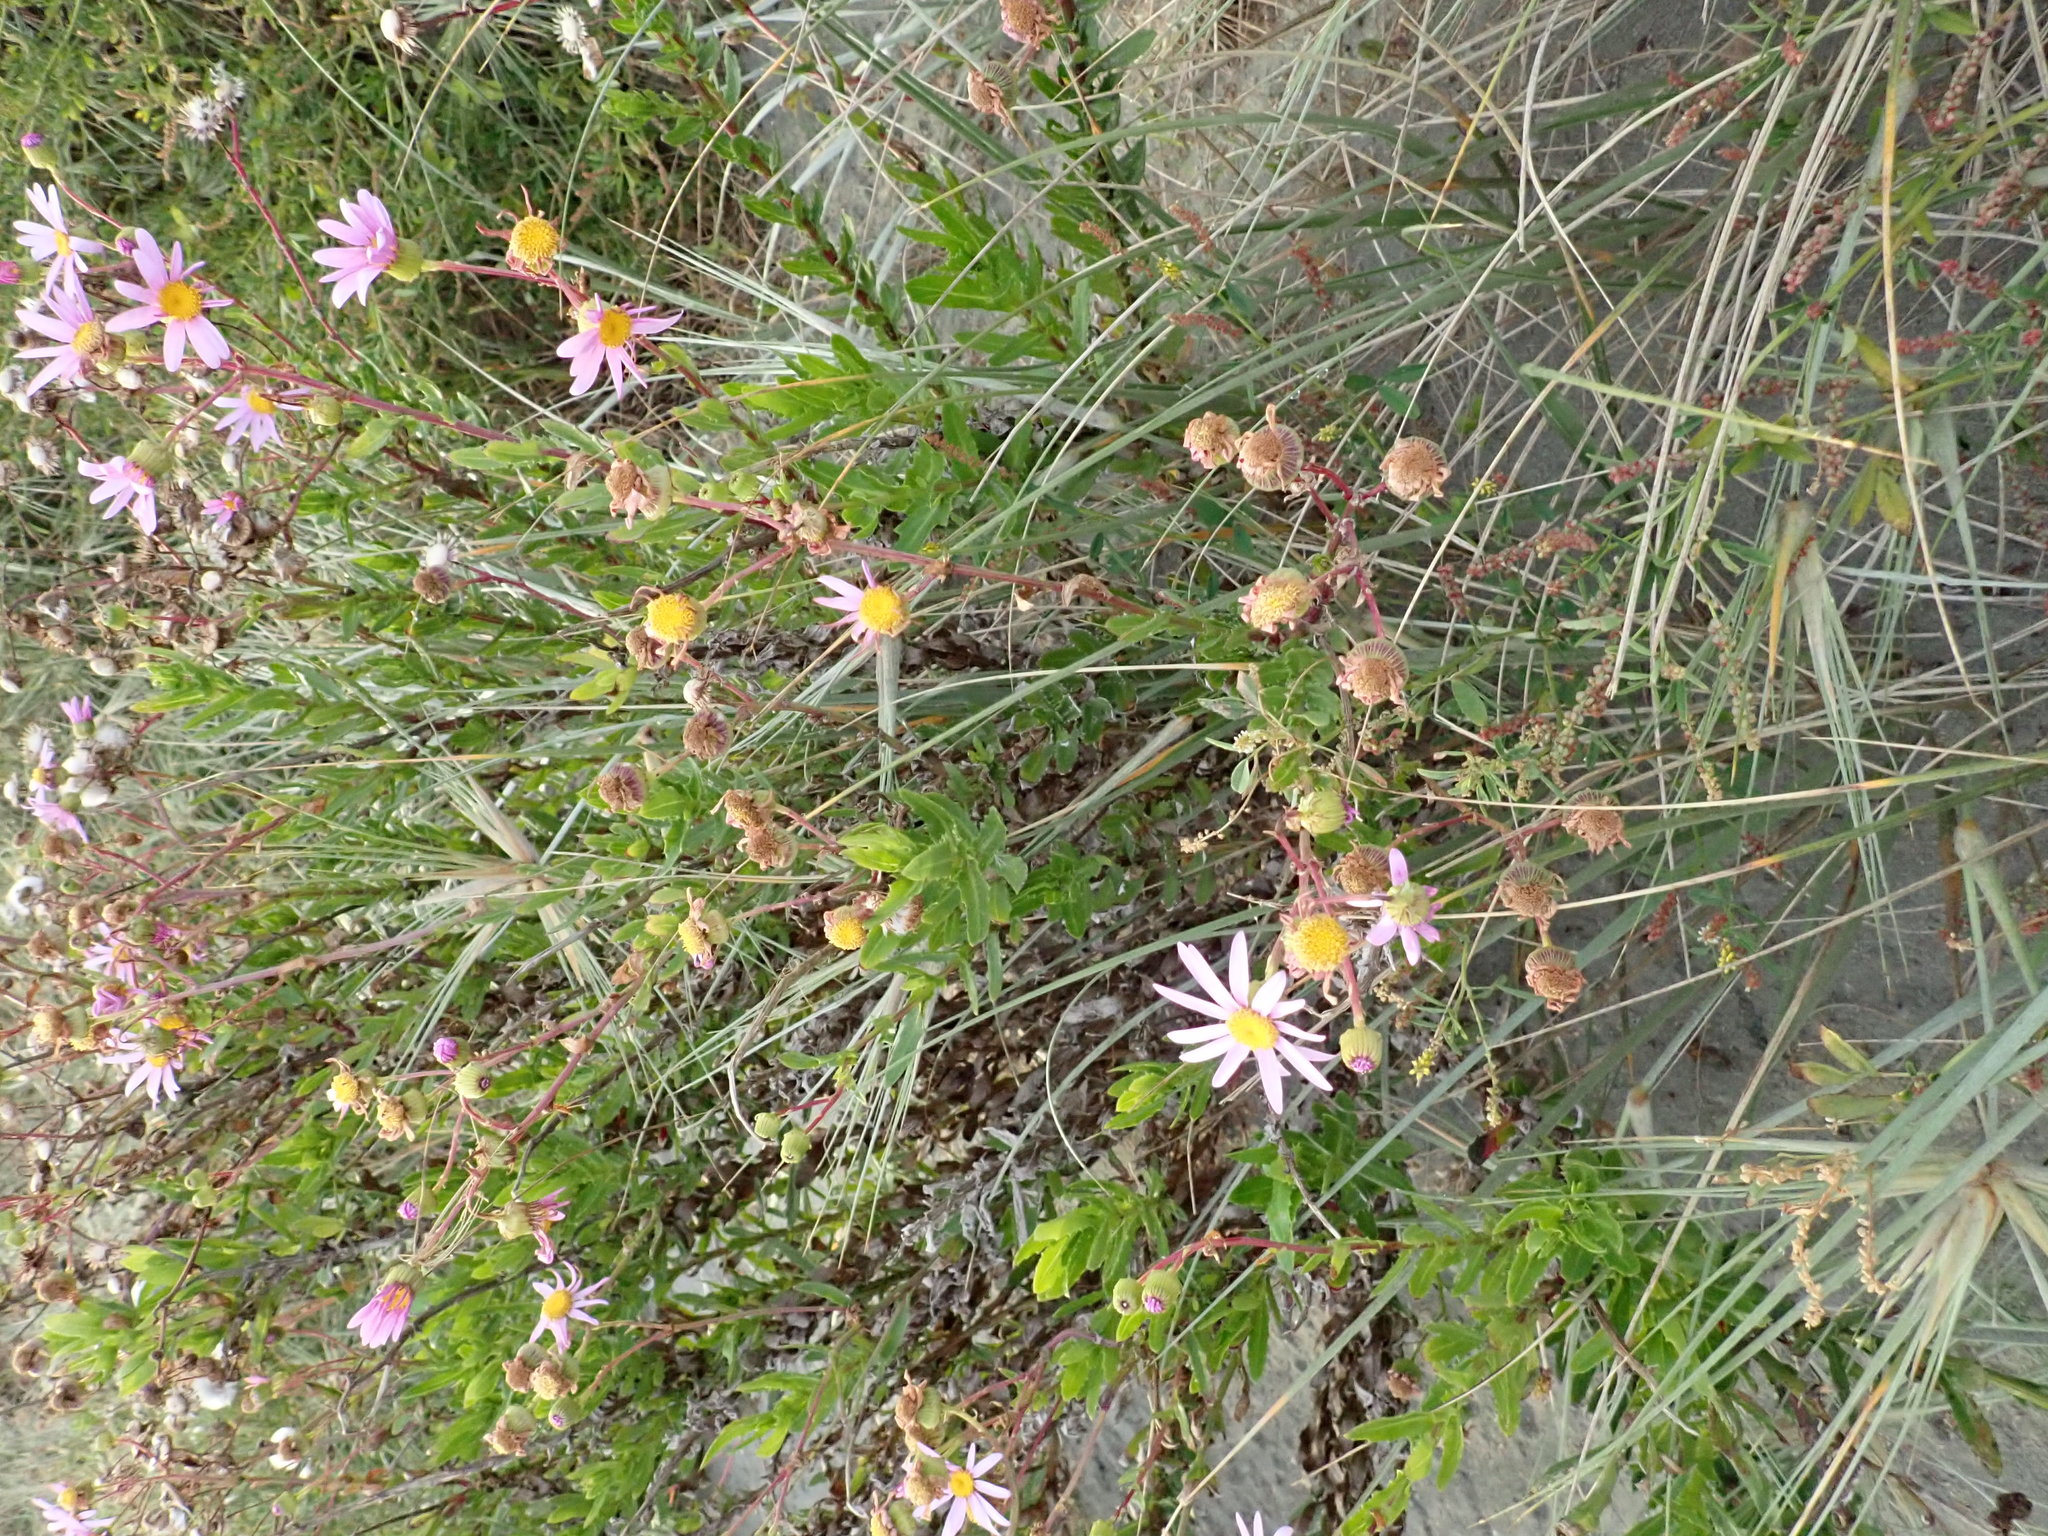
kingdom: Plantae
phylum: Tracheophyta
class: Magnoliopsida
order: Asterales
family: Asteraceae
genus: Senecio
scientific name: Senecio glastifolius
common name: Woad-leaved ragwort
